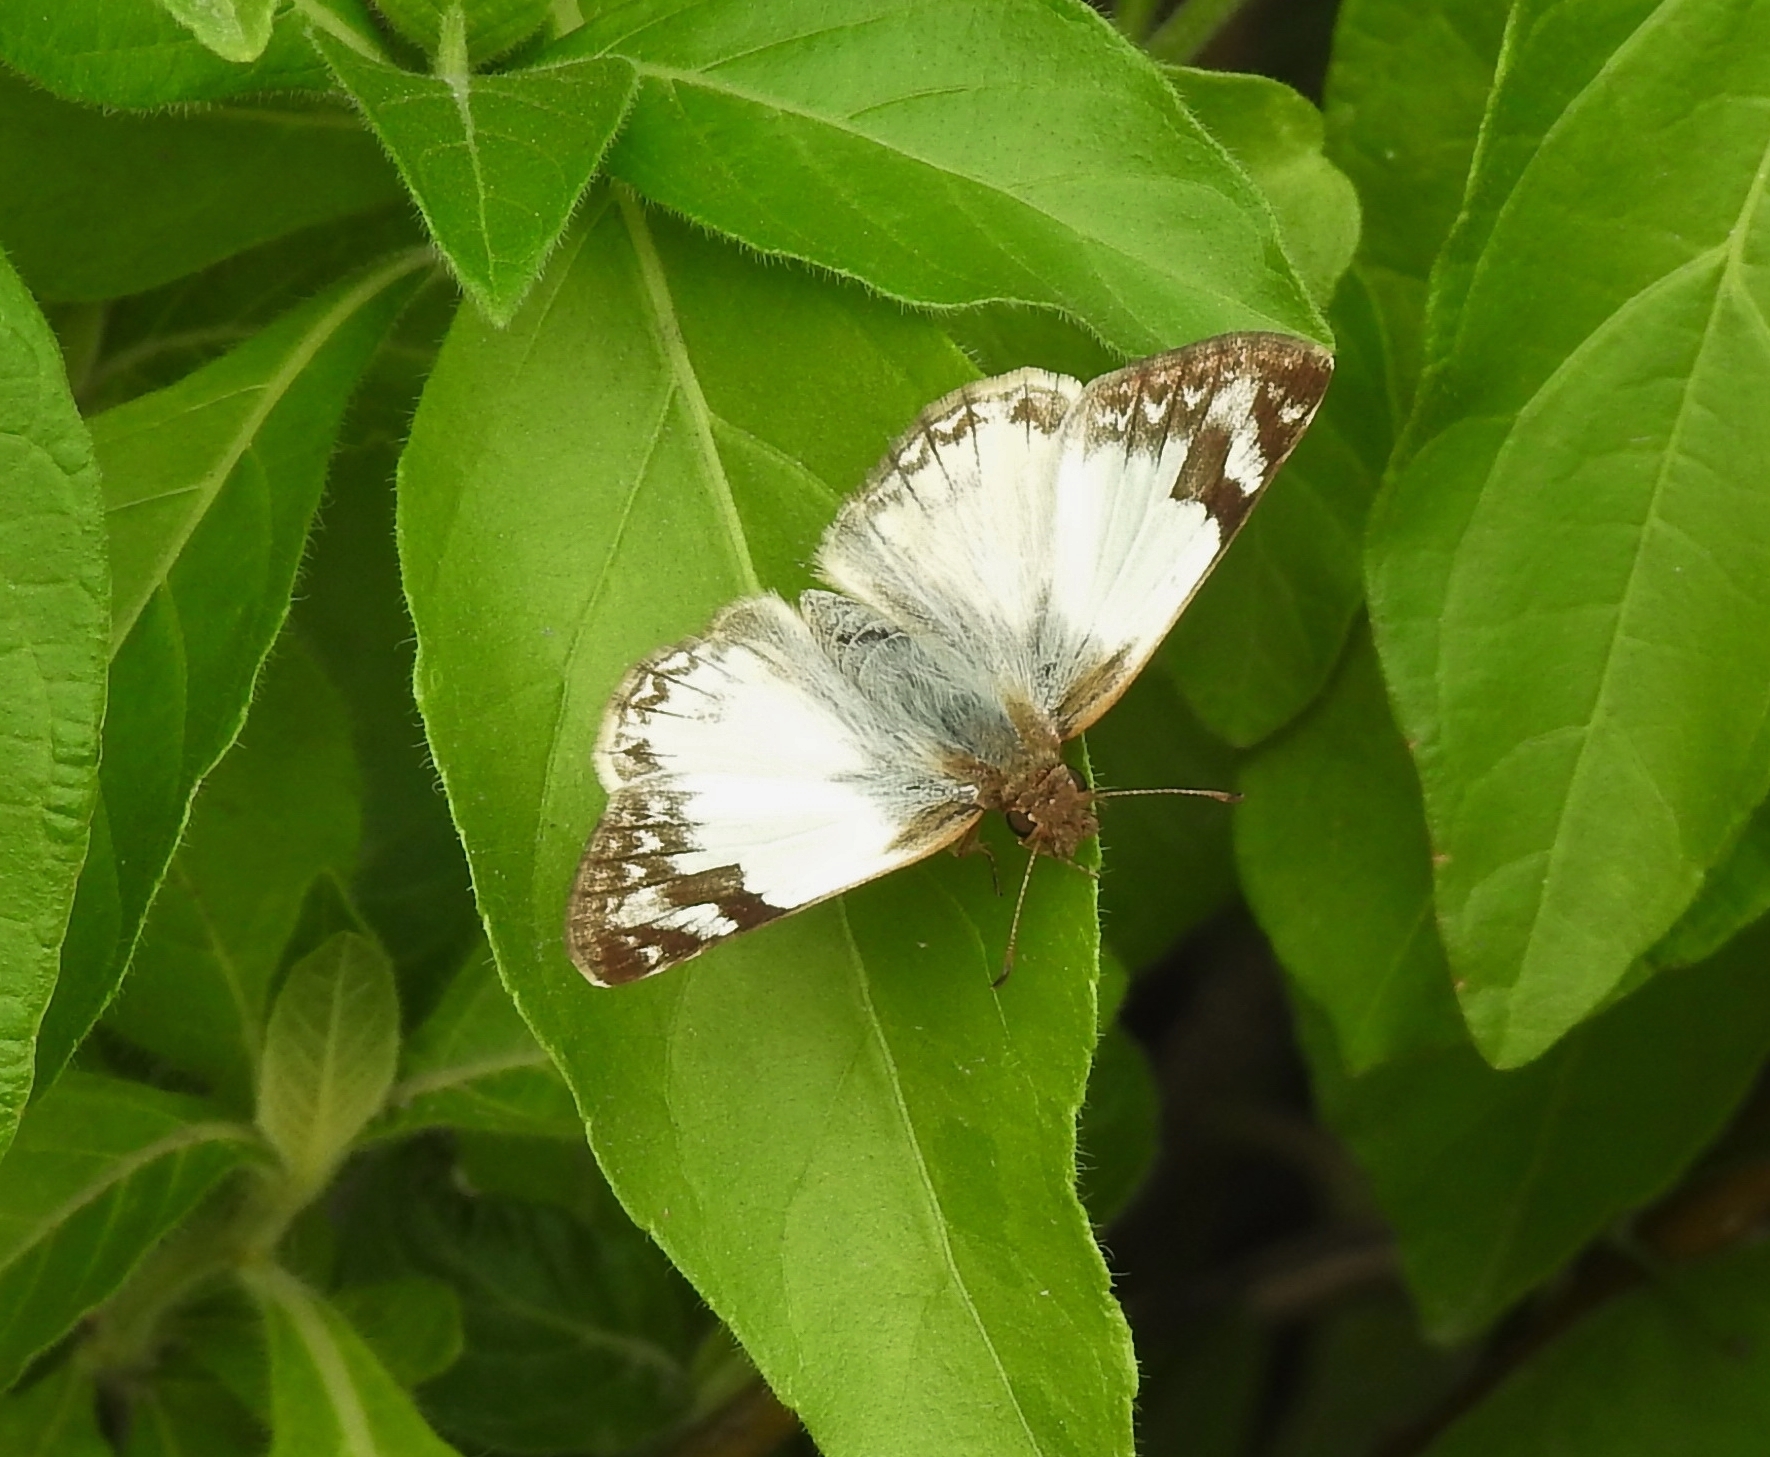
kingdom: Animalia
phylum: Arthropoda
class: Insecta
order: Lepidoptera
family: Hesperiidae
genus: Heliopetes
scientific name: Heliopetes laviana
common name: Laviana white-skipper
